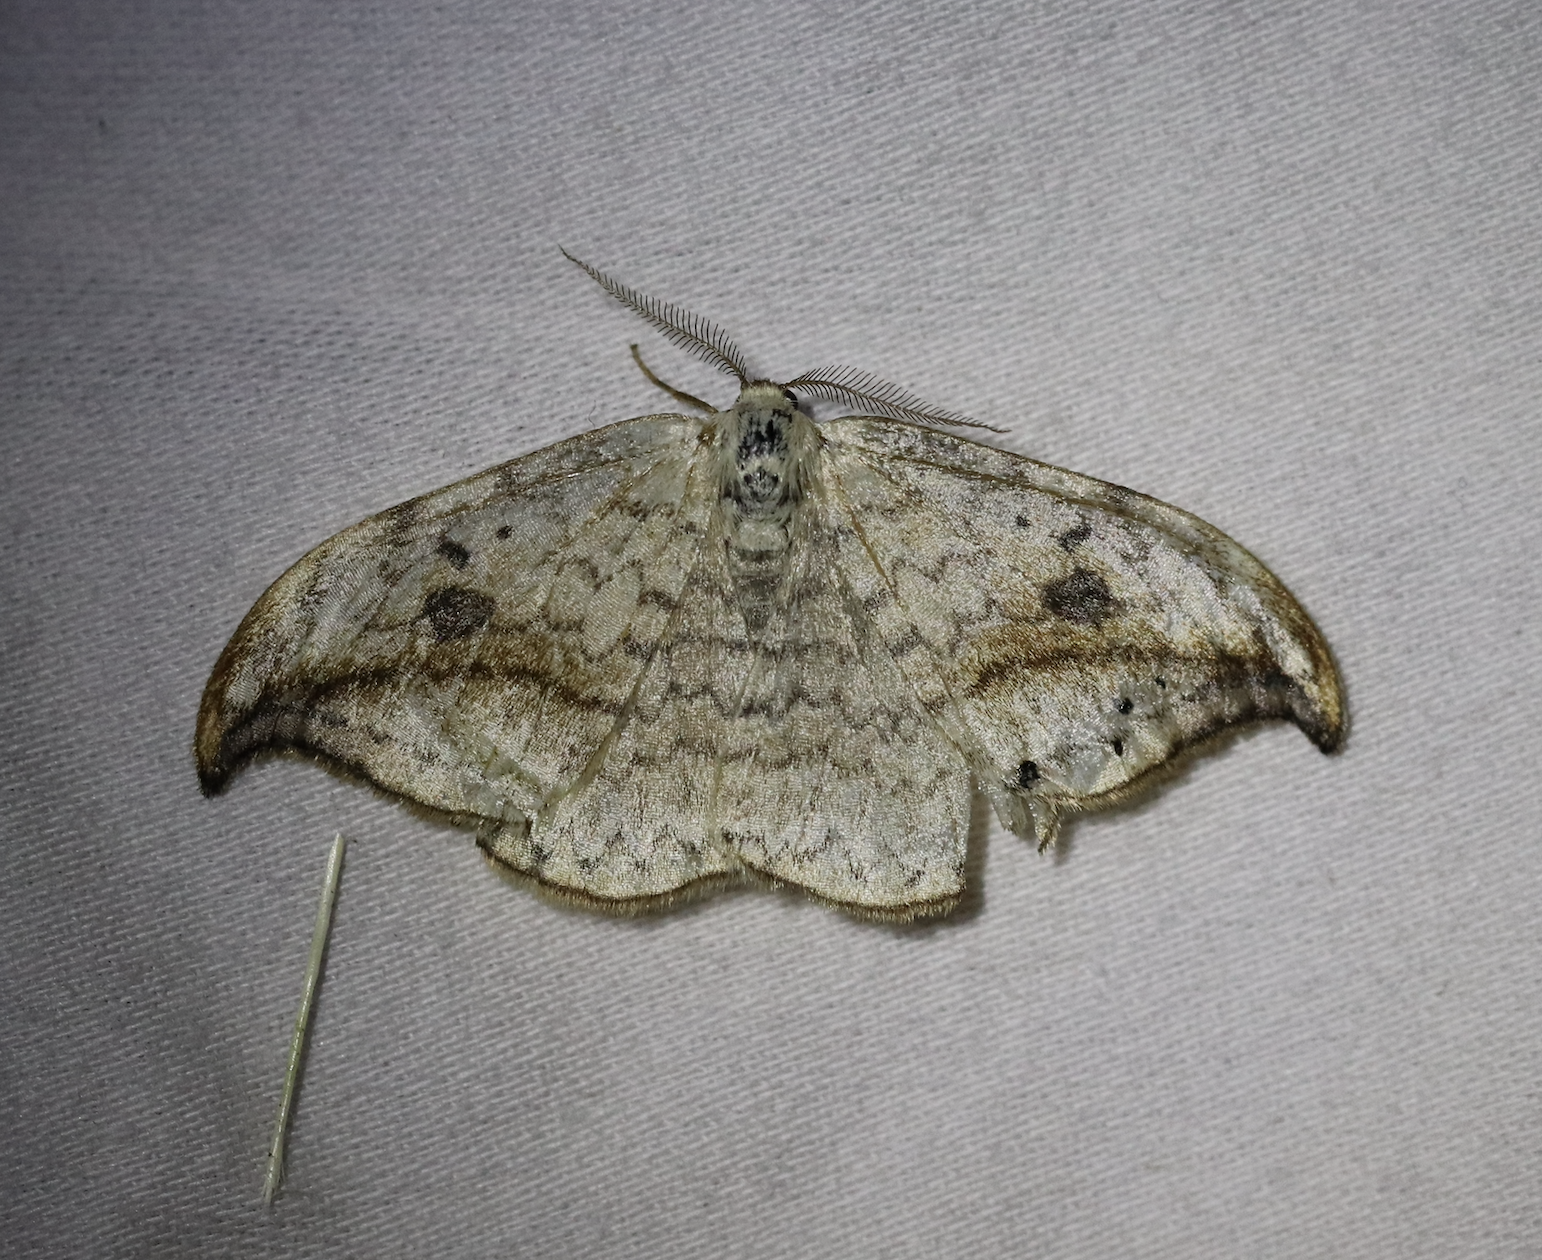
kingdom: Animalia
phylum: Arthropoda
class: Insecta
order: Lepidoptera
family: Drepanidae
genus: Drepana
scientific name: Drepana falcataria
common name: Pebble hook-tip
